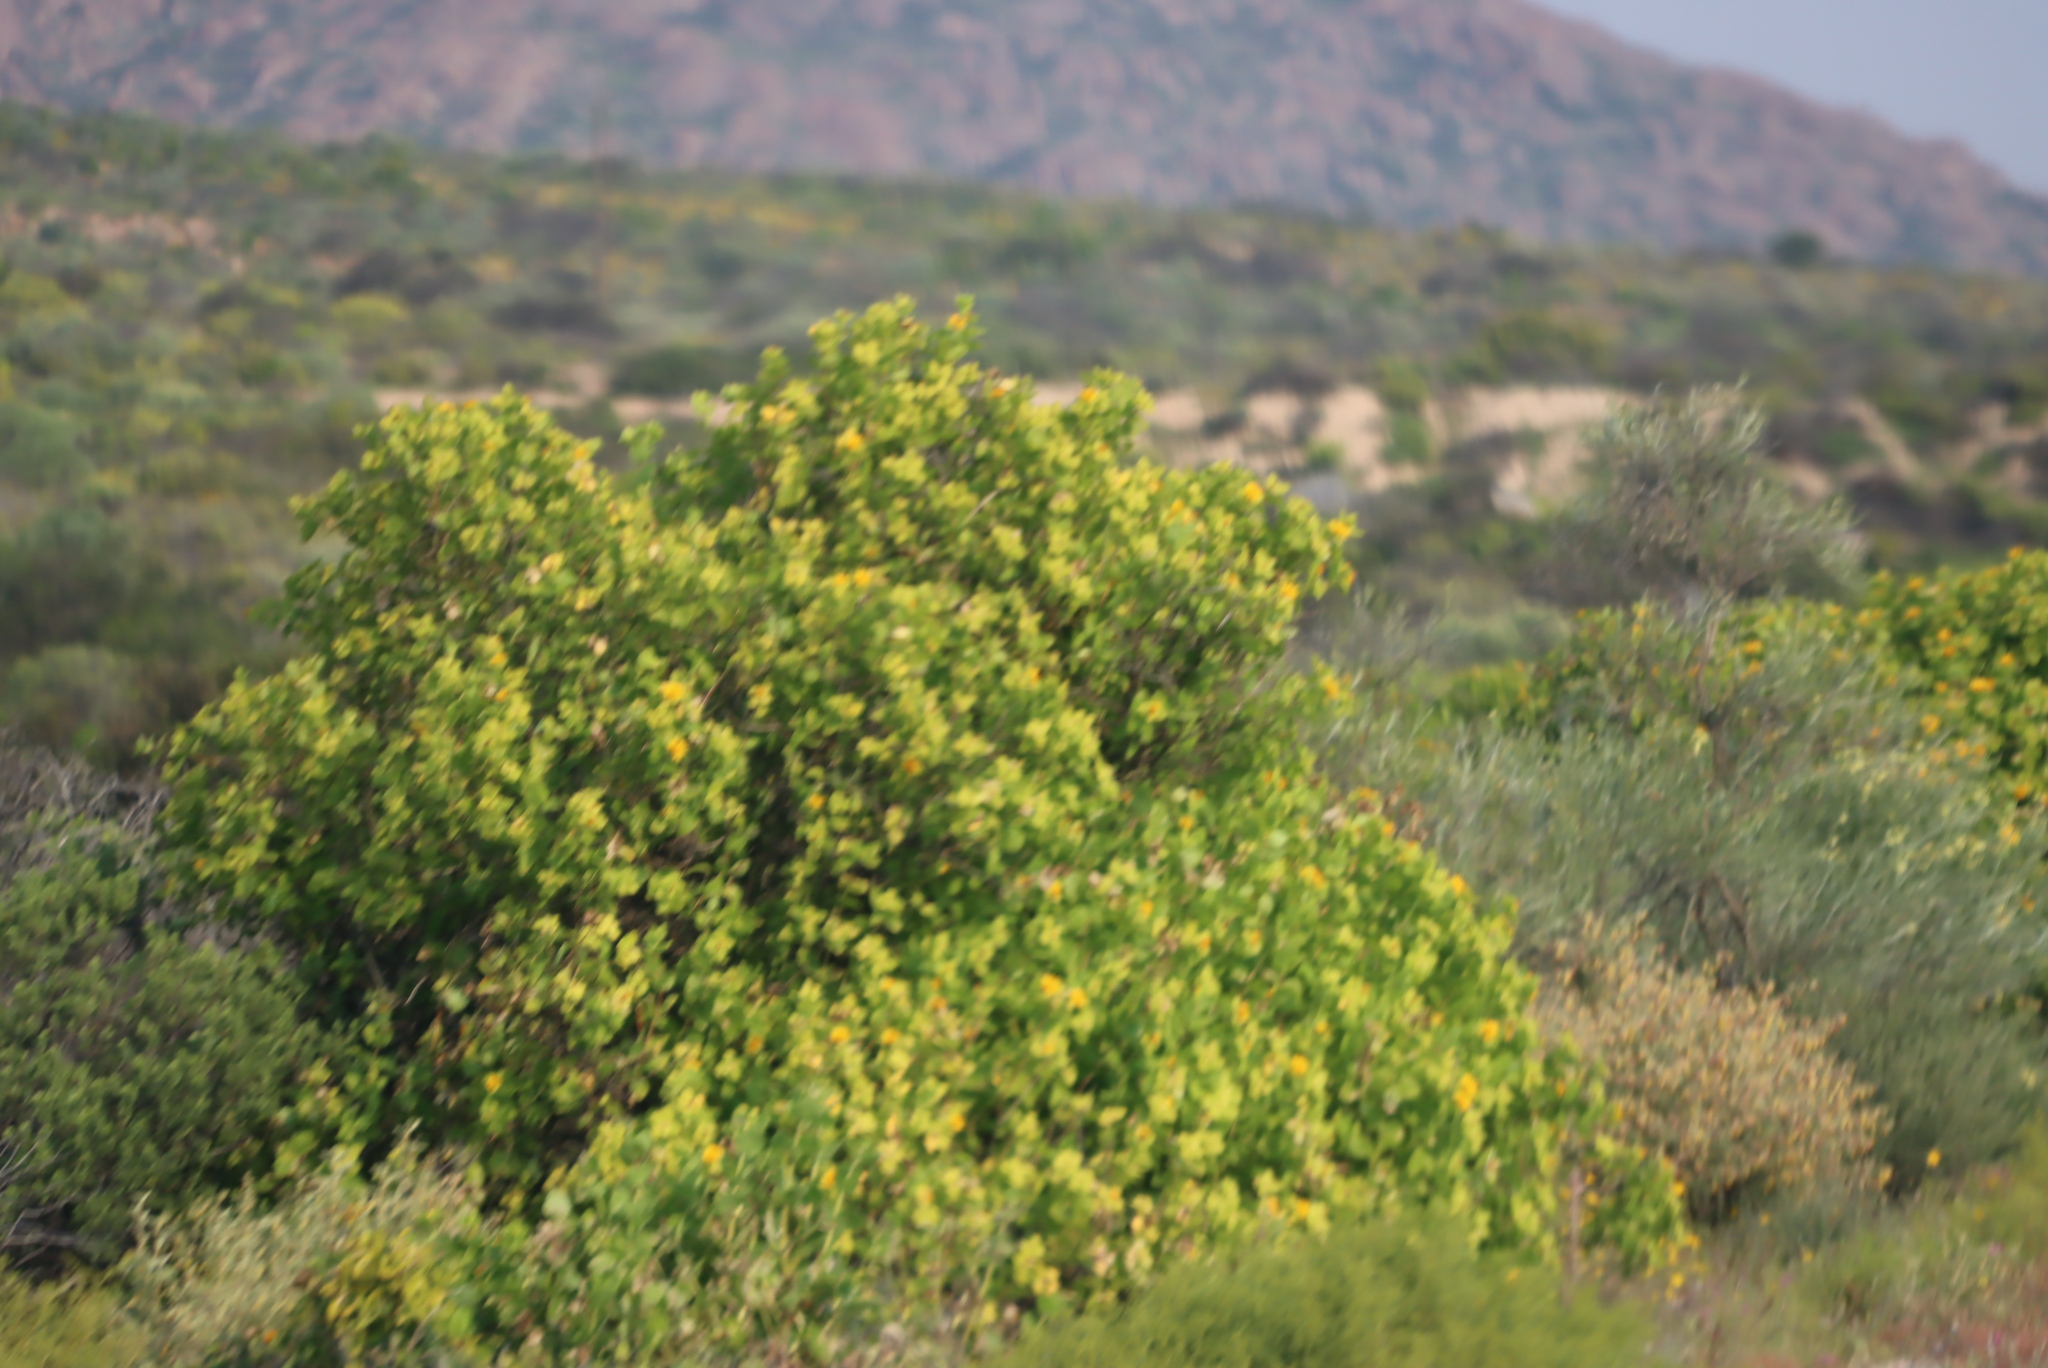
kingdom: Plantae
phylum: Tracheophyta
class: Magnoliopsida
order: Asterales
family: Asteraceae
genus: Didelta
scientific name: Didelta spinosa
